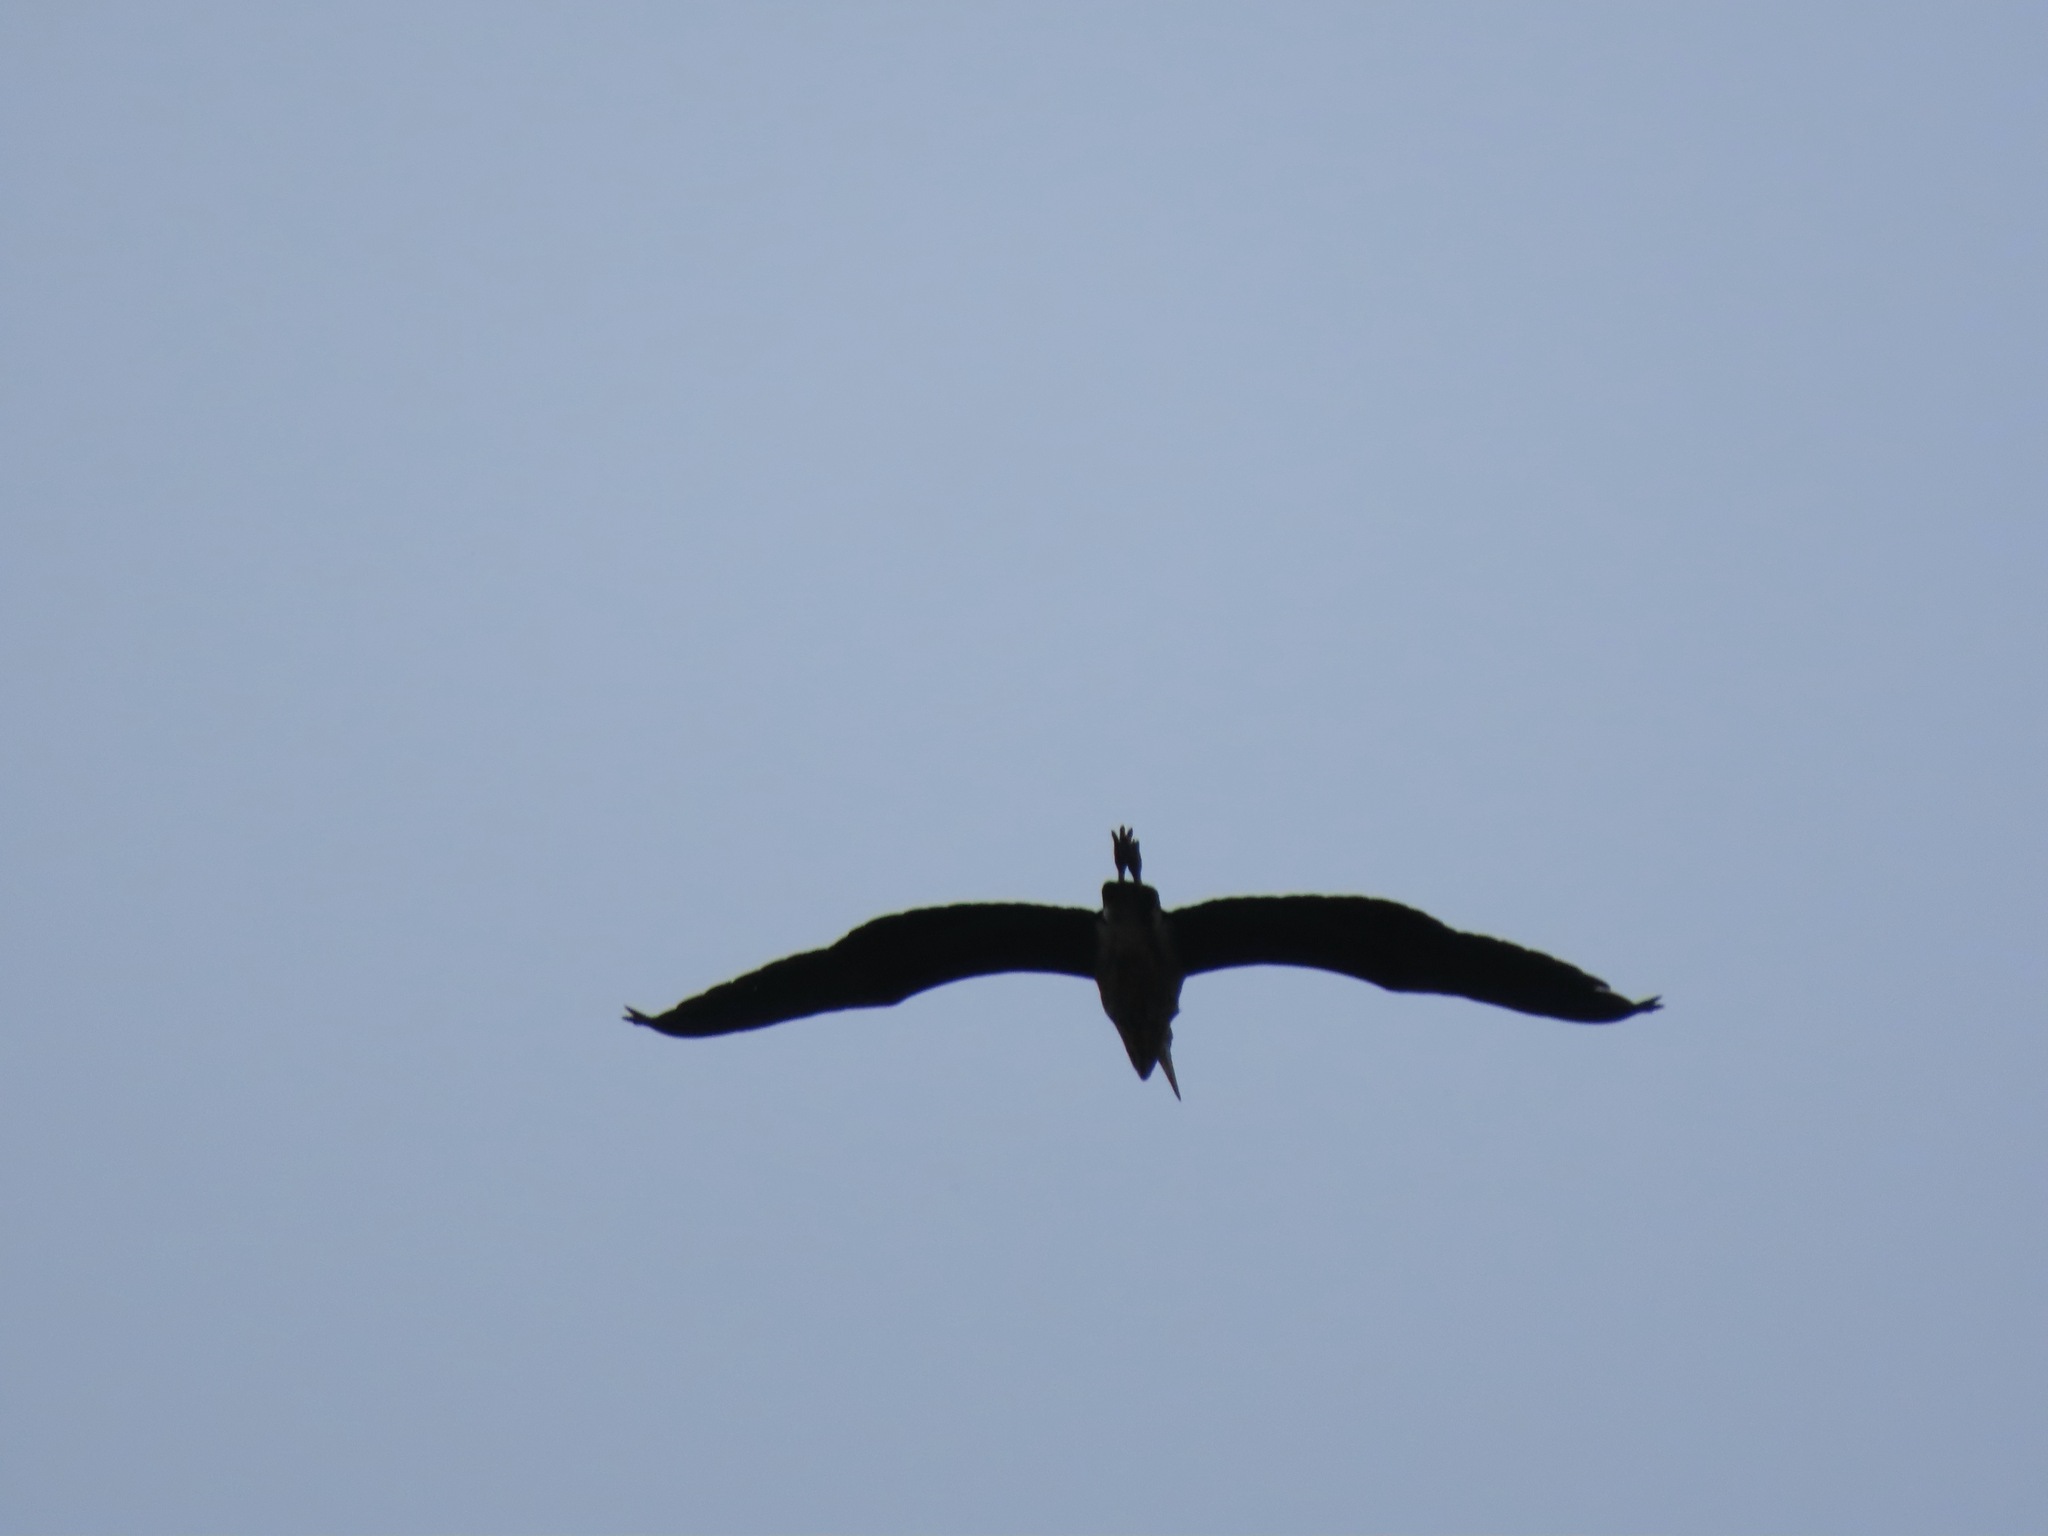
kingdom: Animalia
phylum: Chordata
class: Aves
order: Pelecaniformes
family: Ardeidae
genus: Ardea
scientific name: Ardea herodias
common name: Great blue heron
